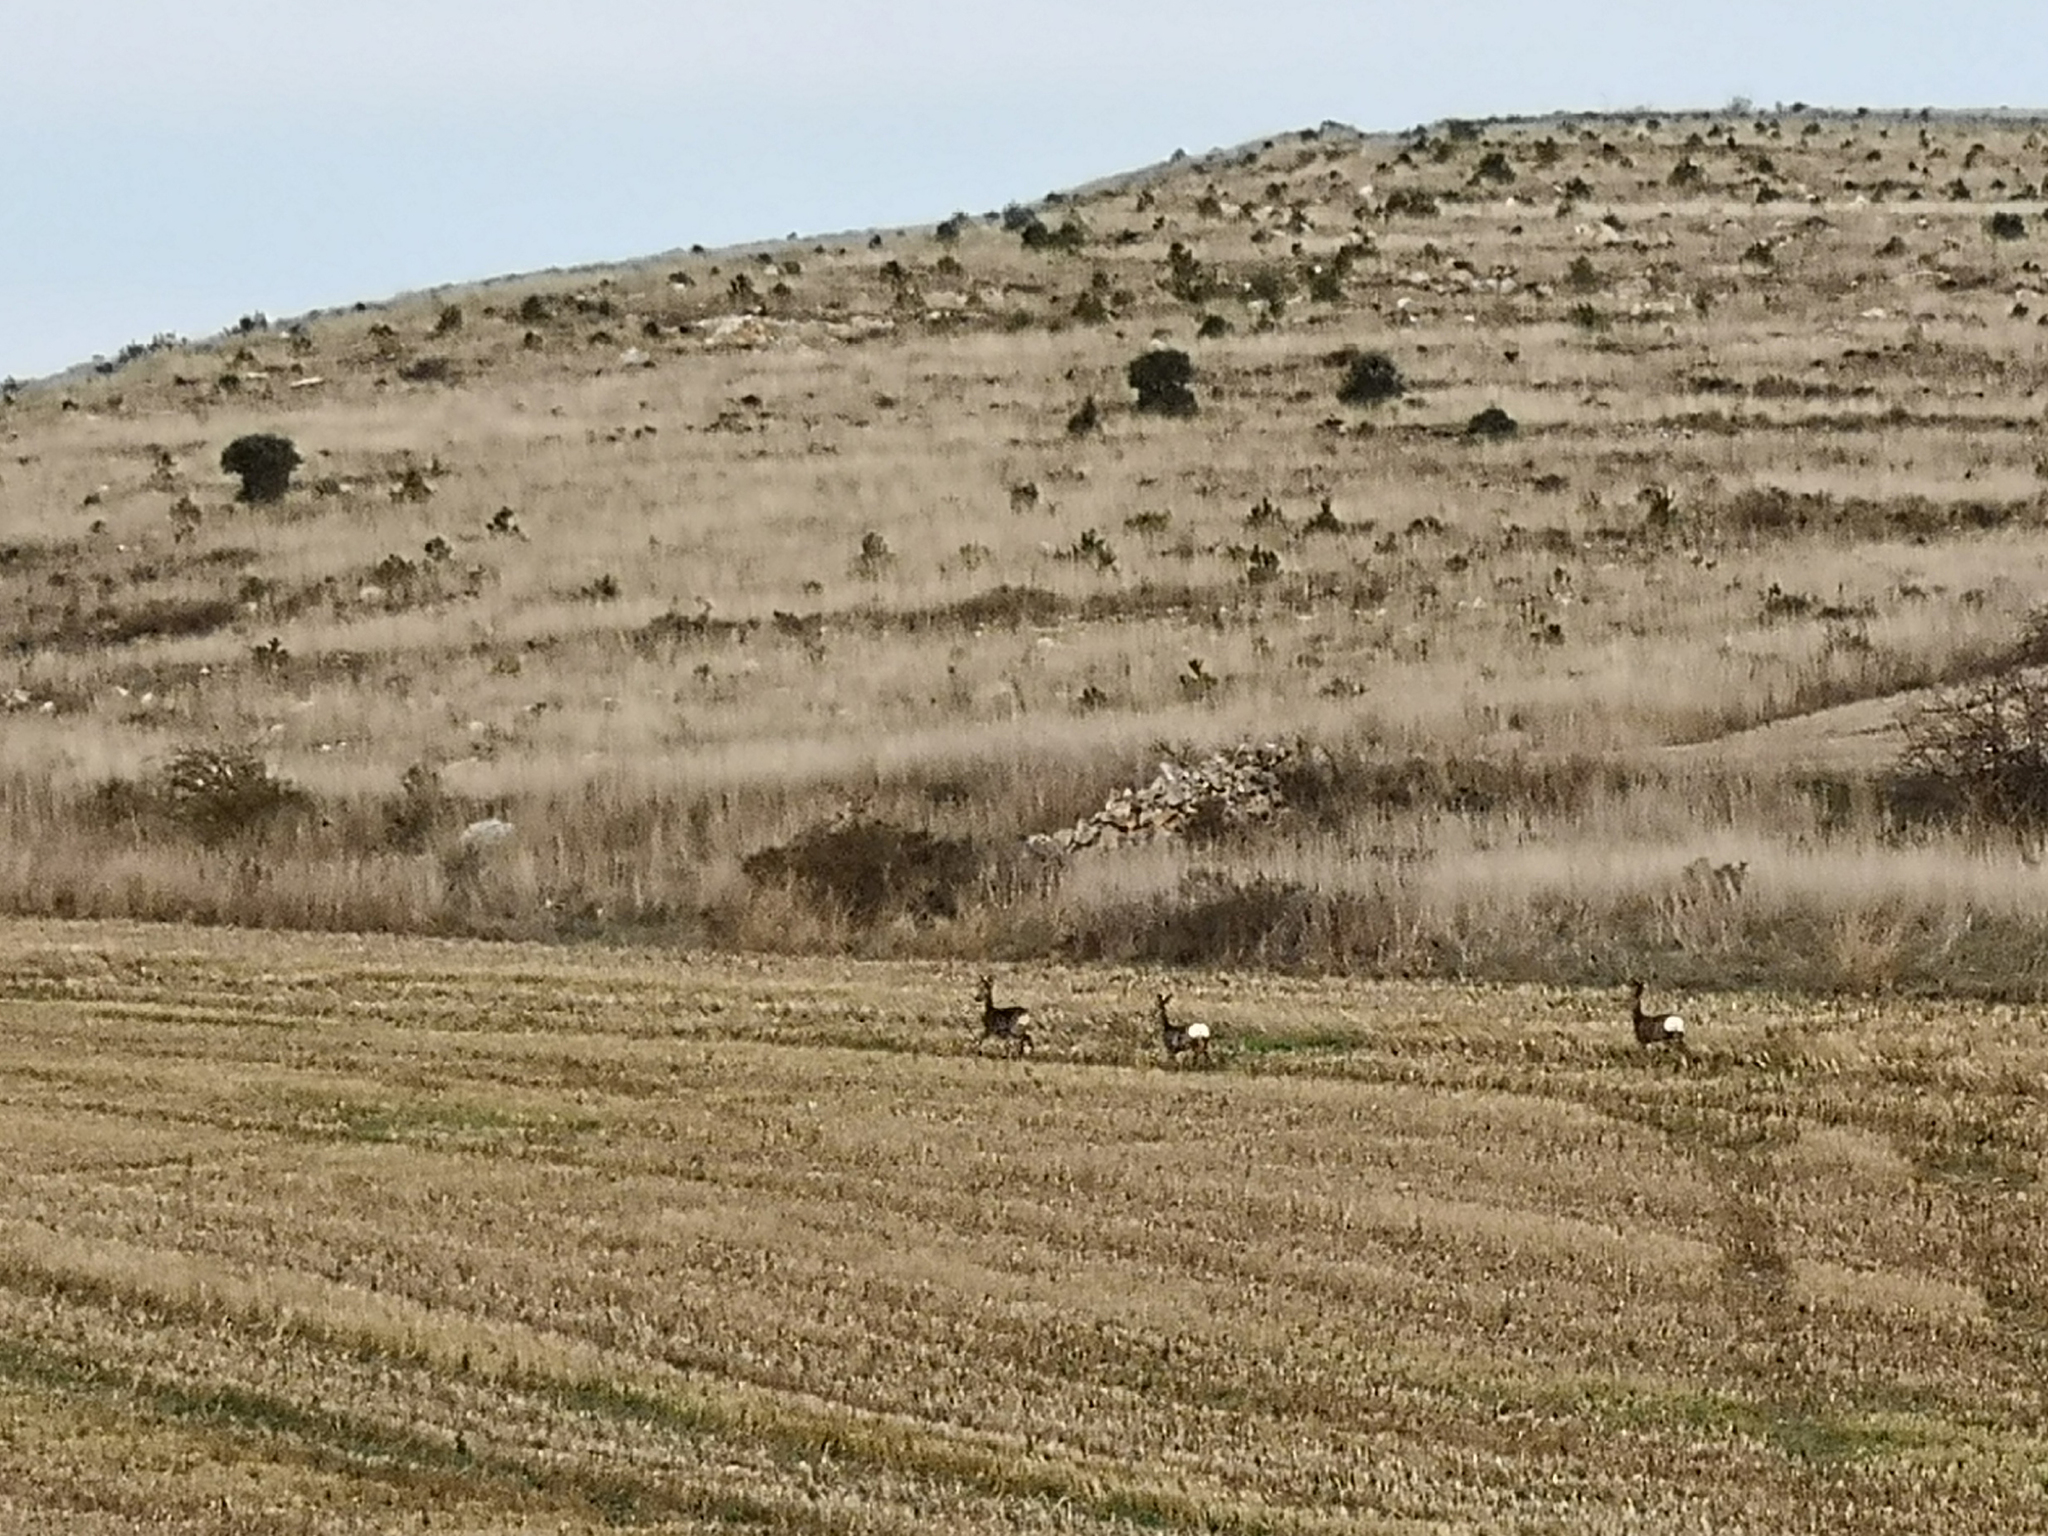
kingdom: Animalia
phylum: Chordata
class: Mammalia
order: Artiodactyla
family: Cervidae
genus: Capreolus
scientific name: Capreolus capreolus
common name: Western roe deer
